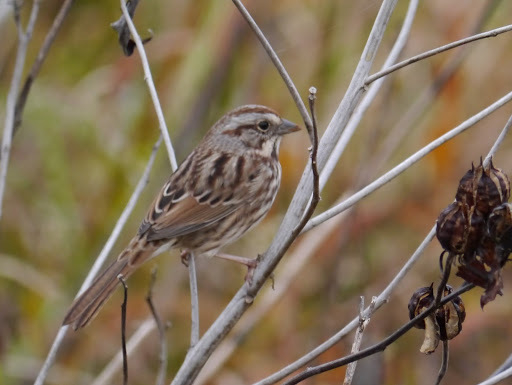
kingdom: Animalia
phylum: Chordata
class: Aves
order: Passeriformes
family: Passerellidae
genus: Melospiza
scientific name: Melospiza melodia
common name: Song sparrow
